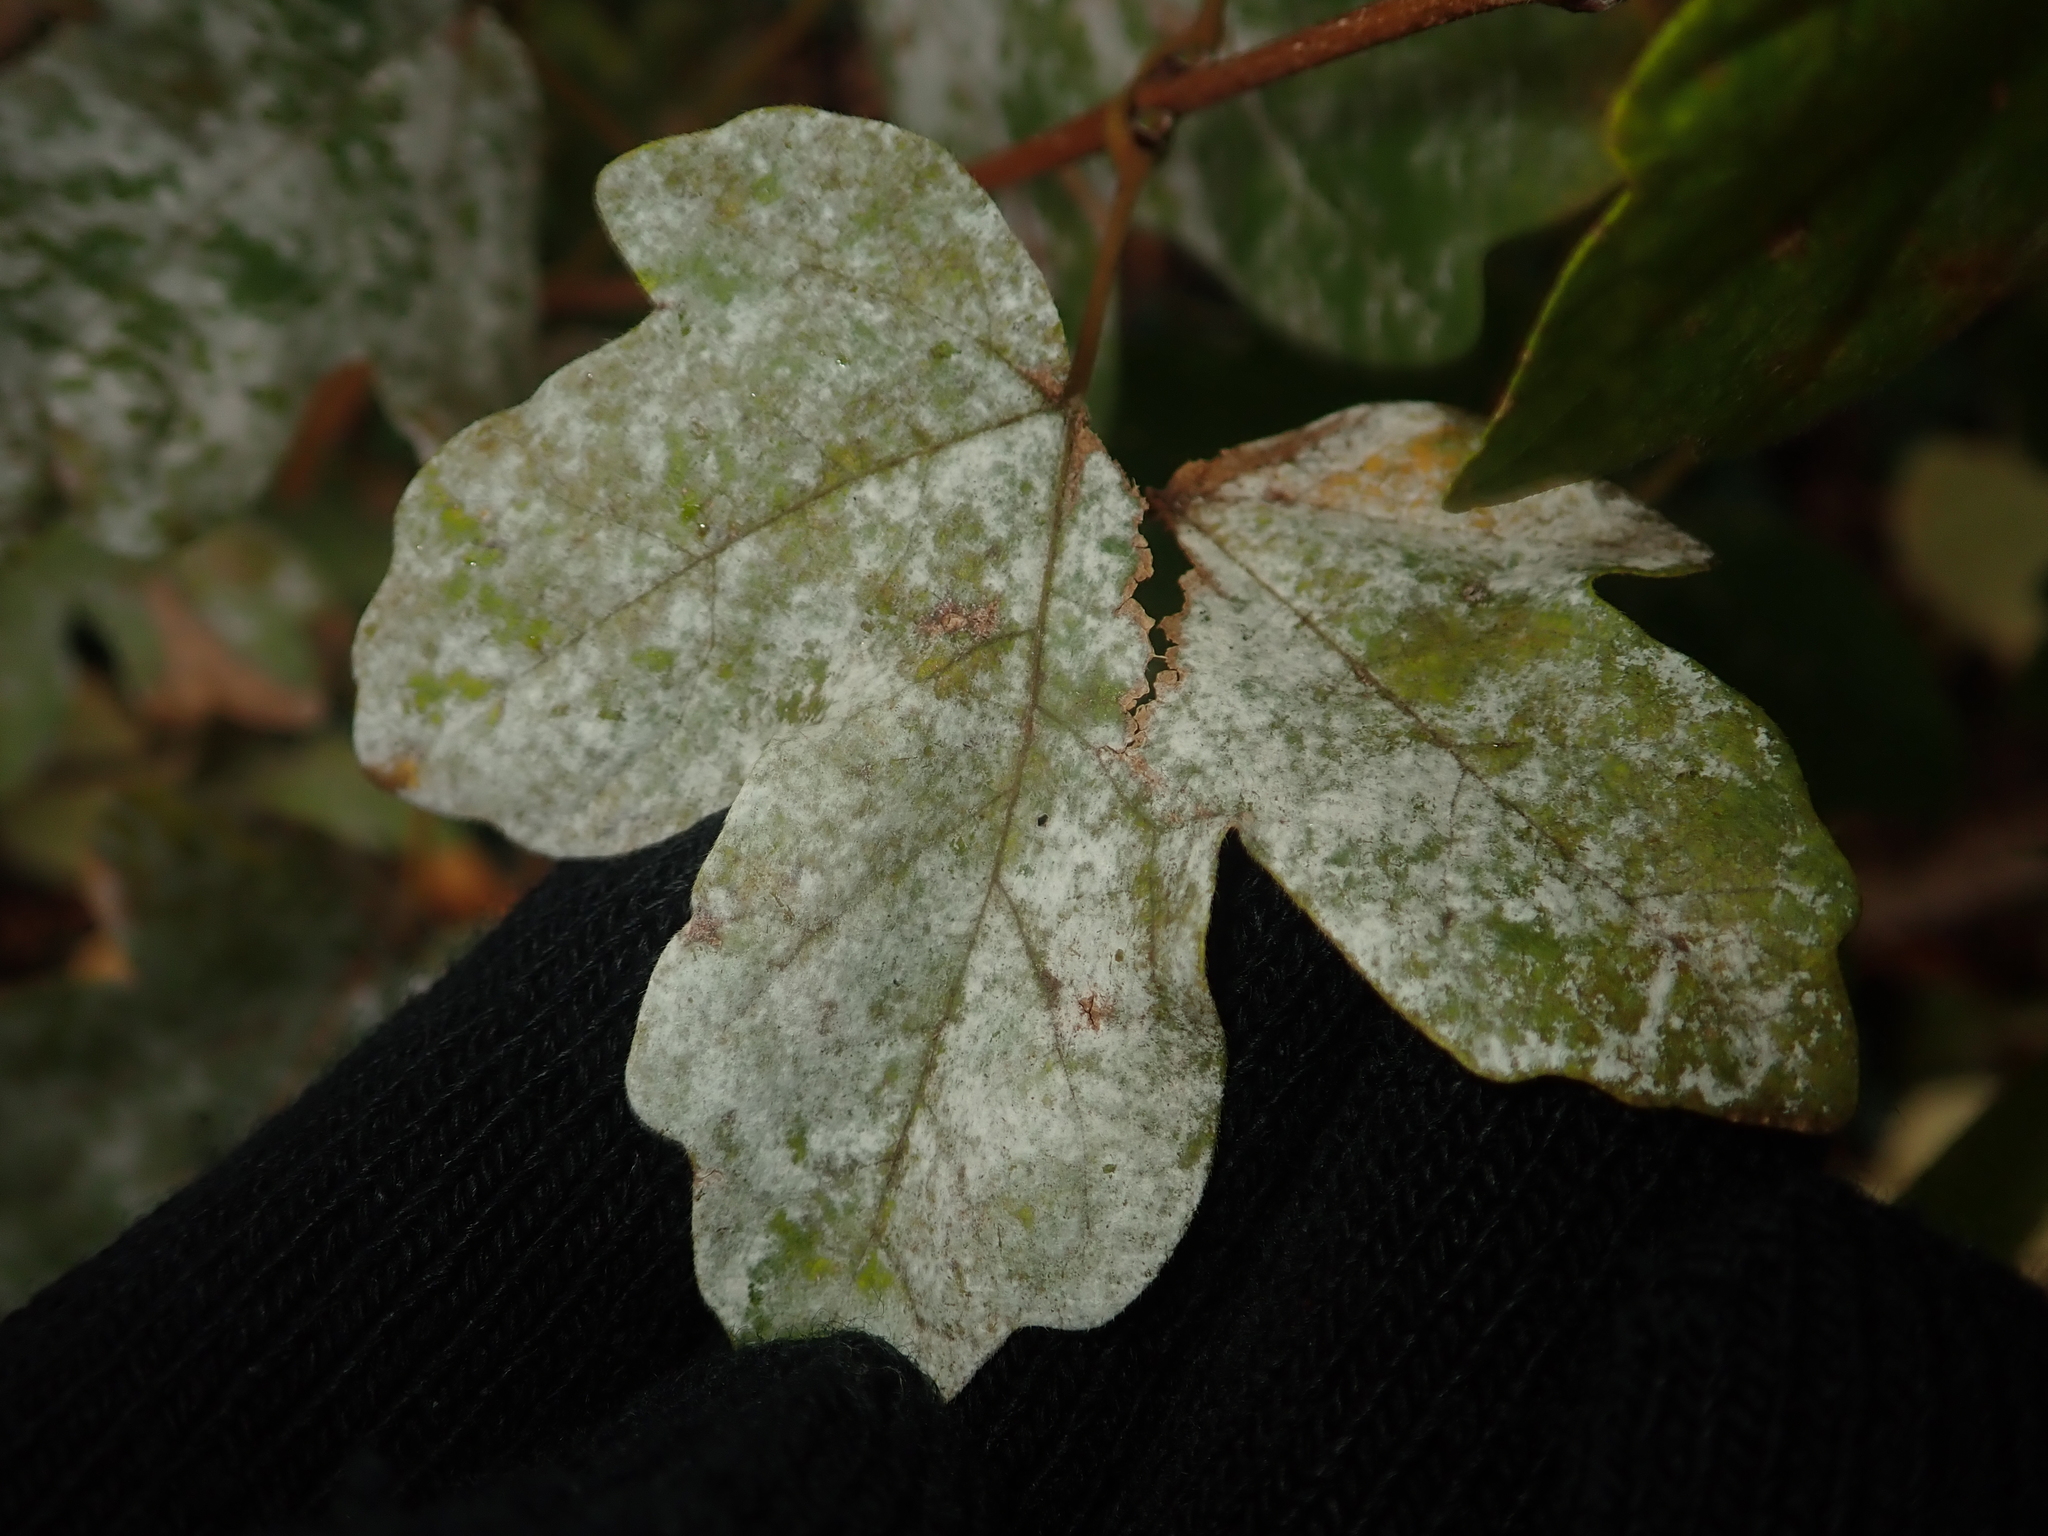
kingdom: Fungi
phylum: Ascomycota
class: Leotiomycetes
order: Helotiales
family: Erysiphaceae
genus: Sawadaea
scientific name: Sawadaea bicornis
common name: Maple mildew
